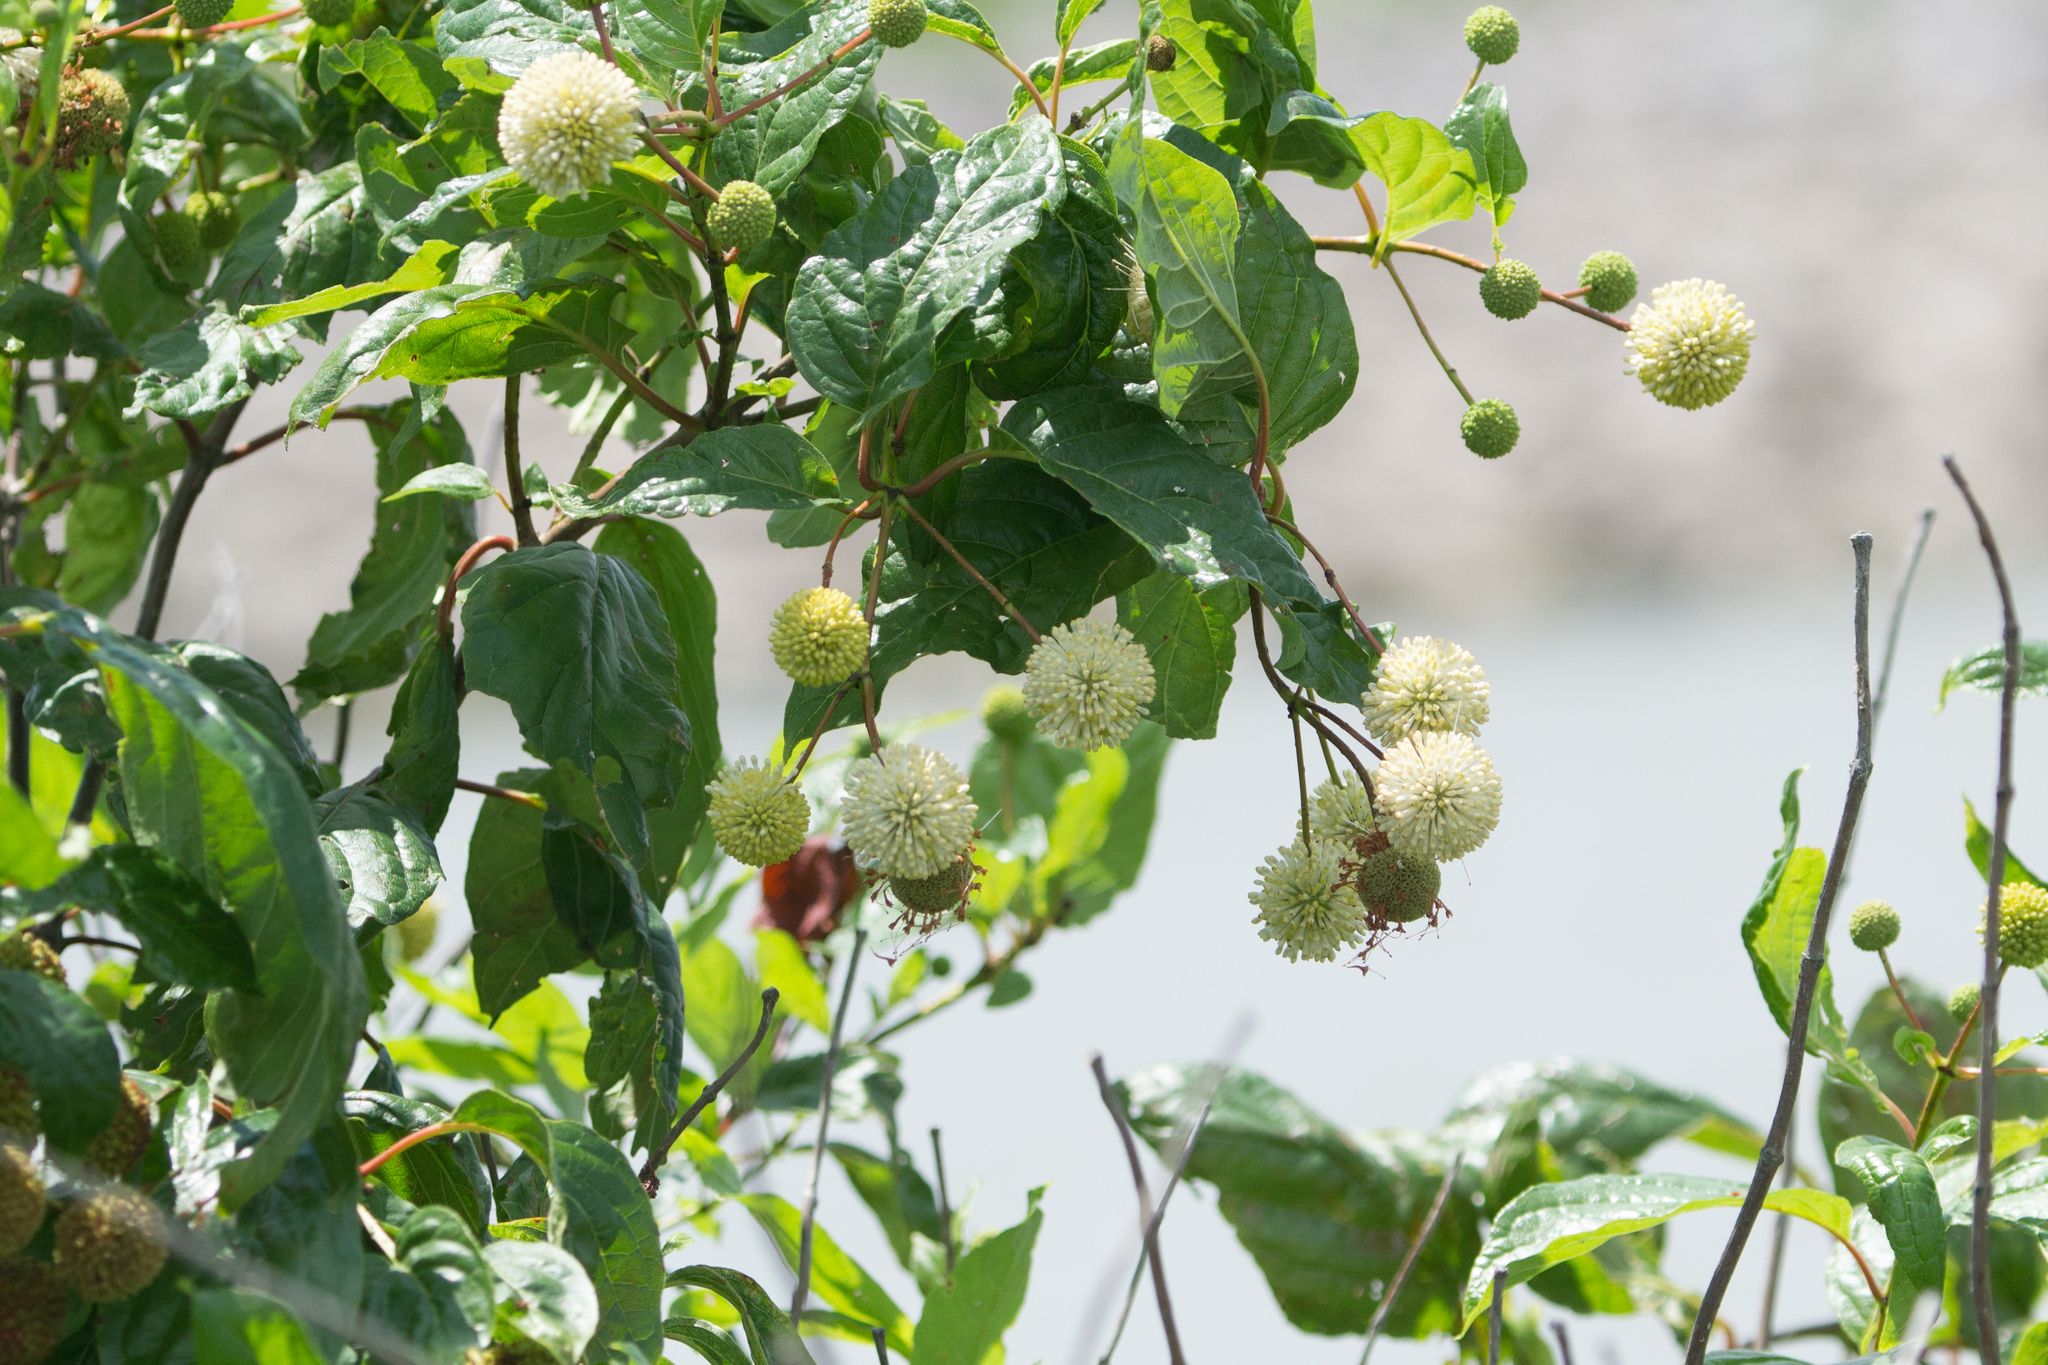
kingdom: Plantae
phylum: Tracheophyta
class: Magnoliopsida
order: Gentianales
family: Rubiaceae
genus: Cephalanthus
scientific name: Cephalanthus occidentalis
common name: Button-willow
